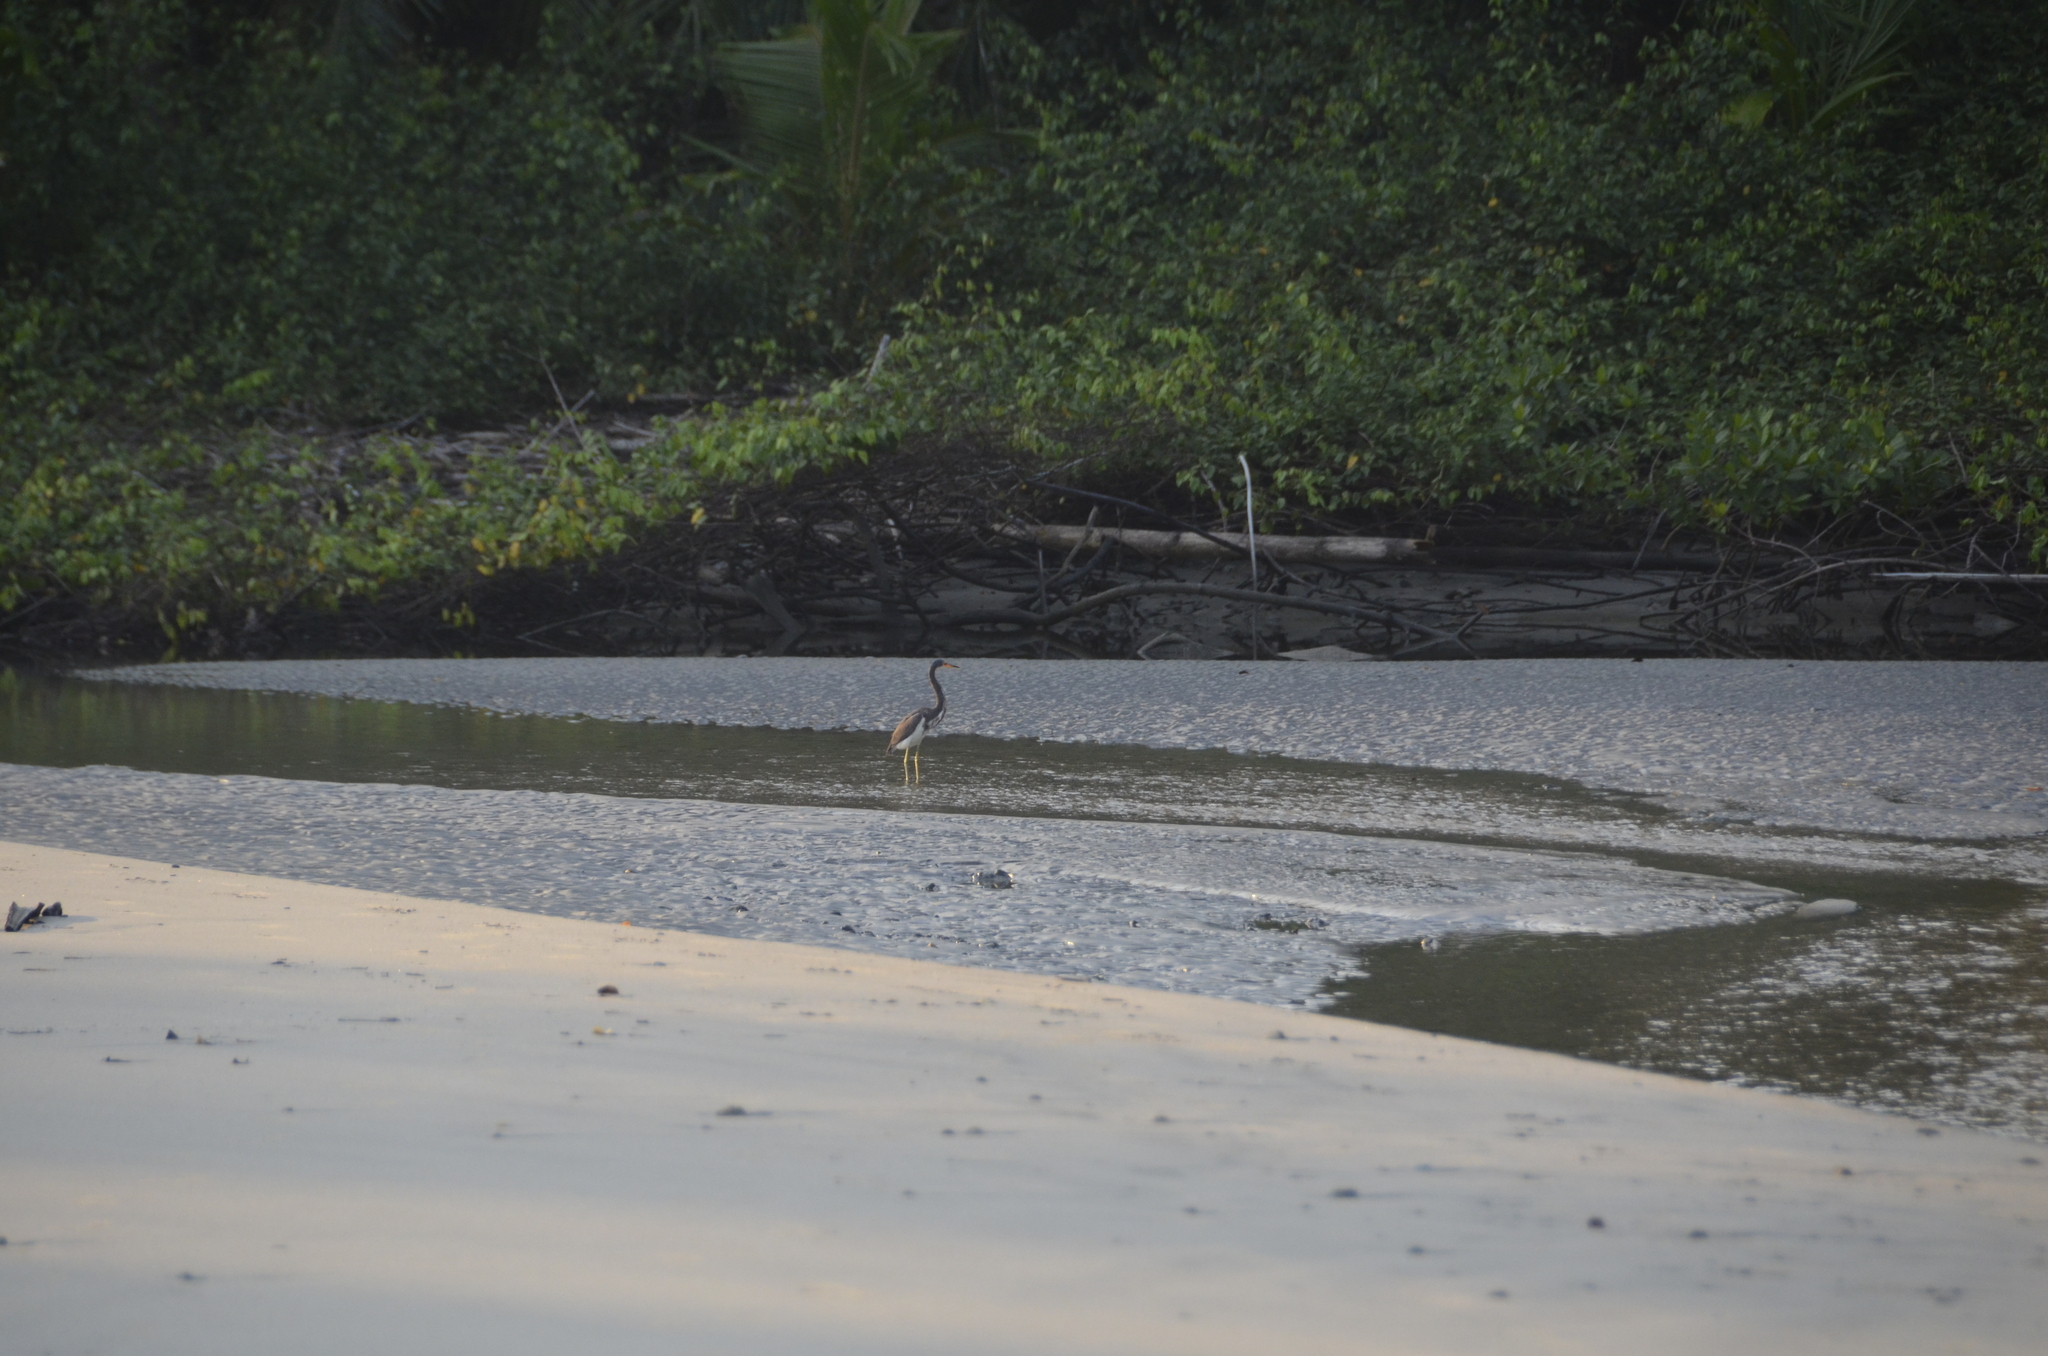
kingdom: Animalia
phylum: Chordata
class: Aves
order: Pelecaniformes
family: Ardeidae
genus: Egretta
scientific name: Egretta tricolor
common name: Tricolored heron
